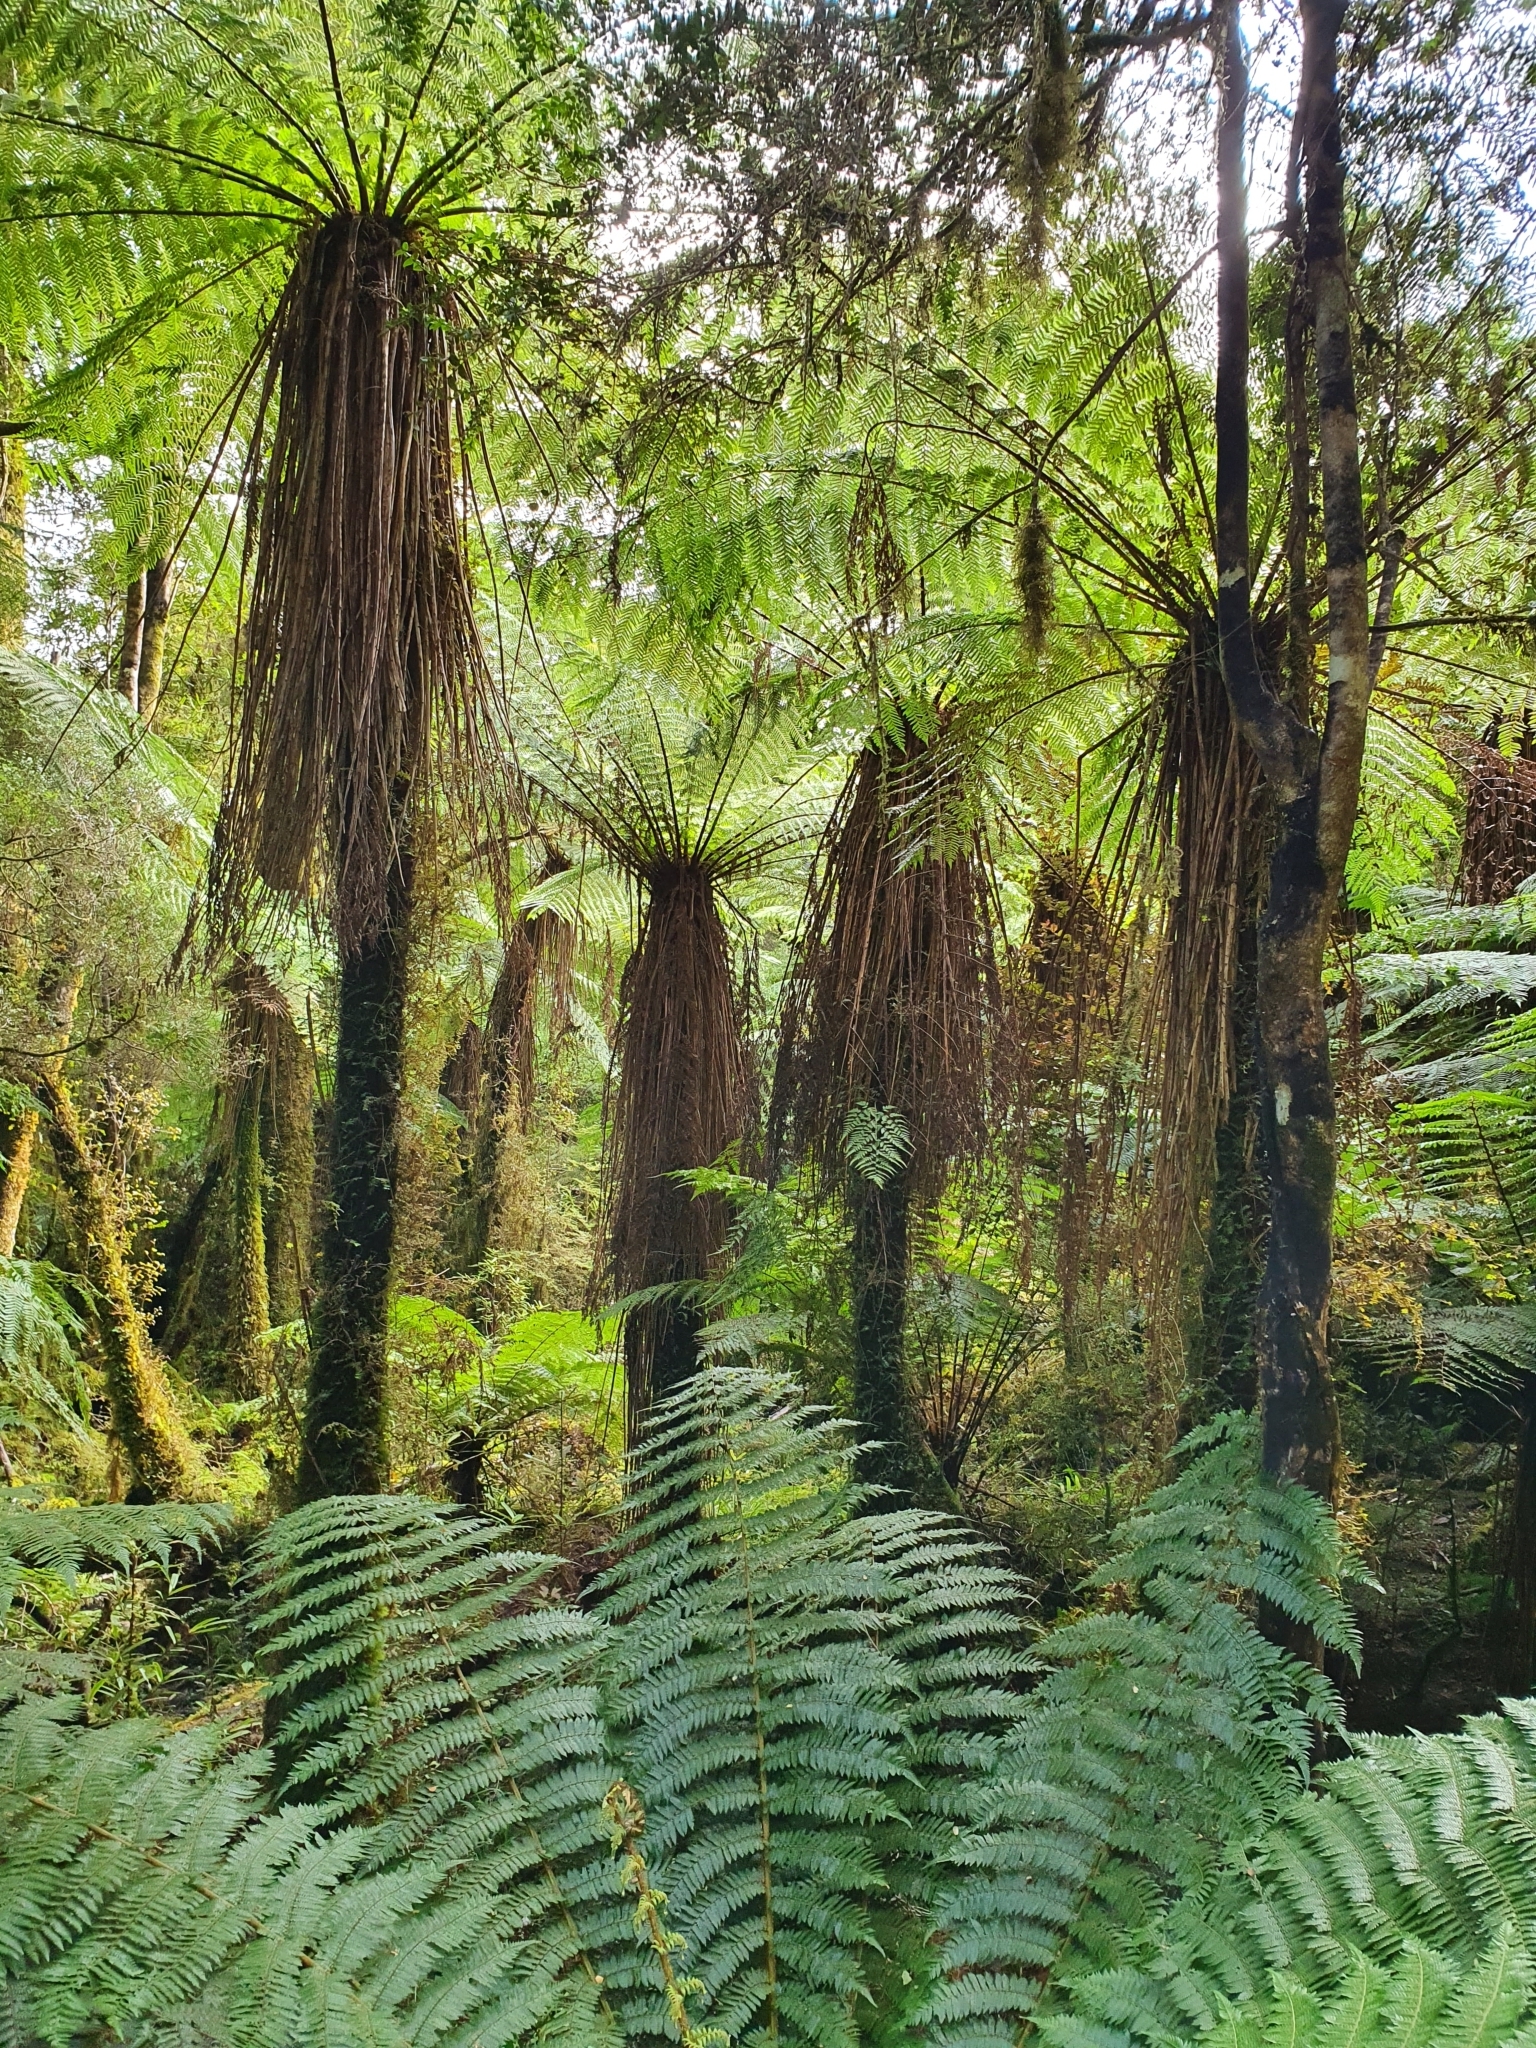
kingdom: Plantae
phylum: Tracheophyta
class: Polypodiopsida
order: Cyatheales
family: Cyatheaceae
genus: Alsophila
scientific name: Alsophila smithii
